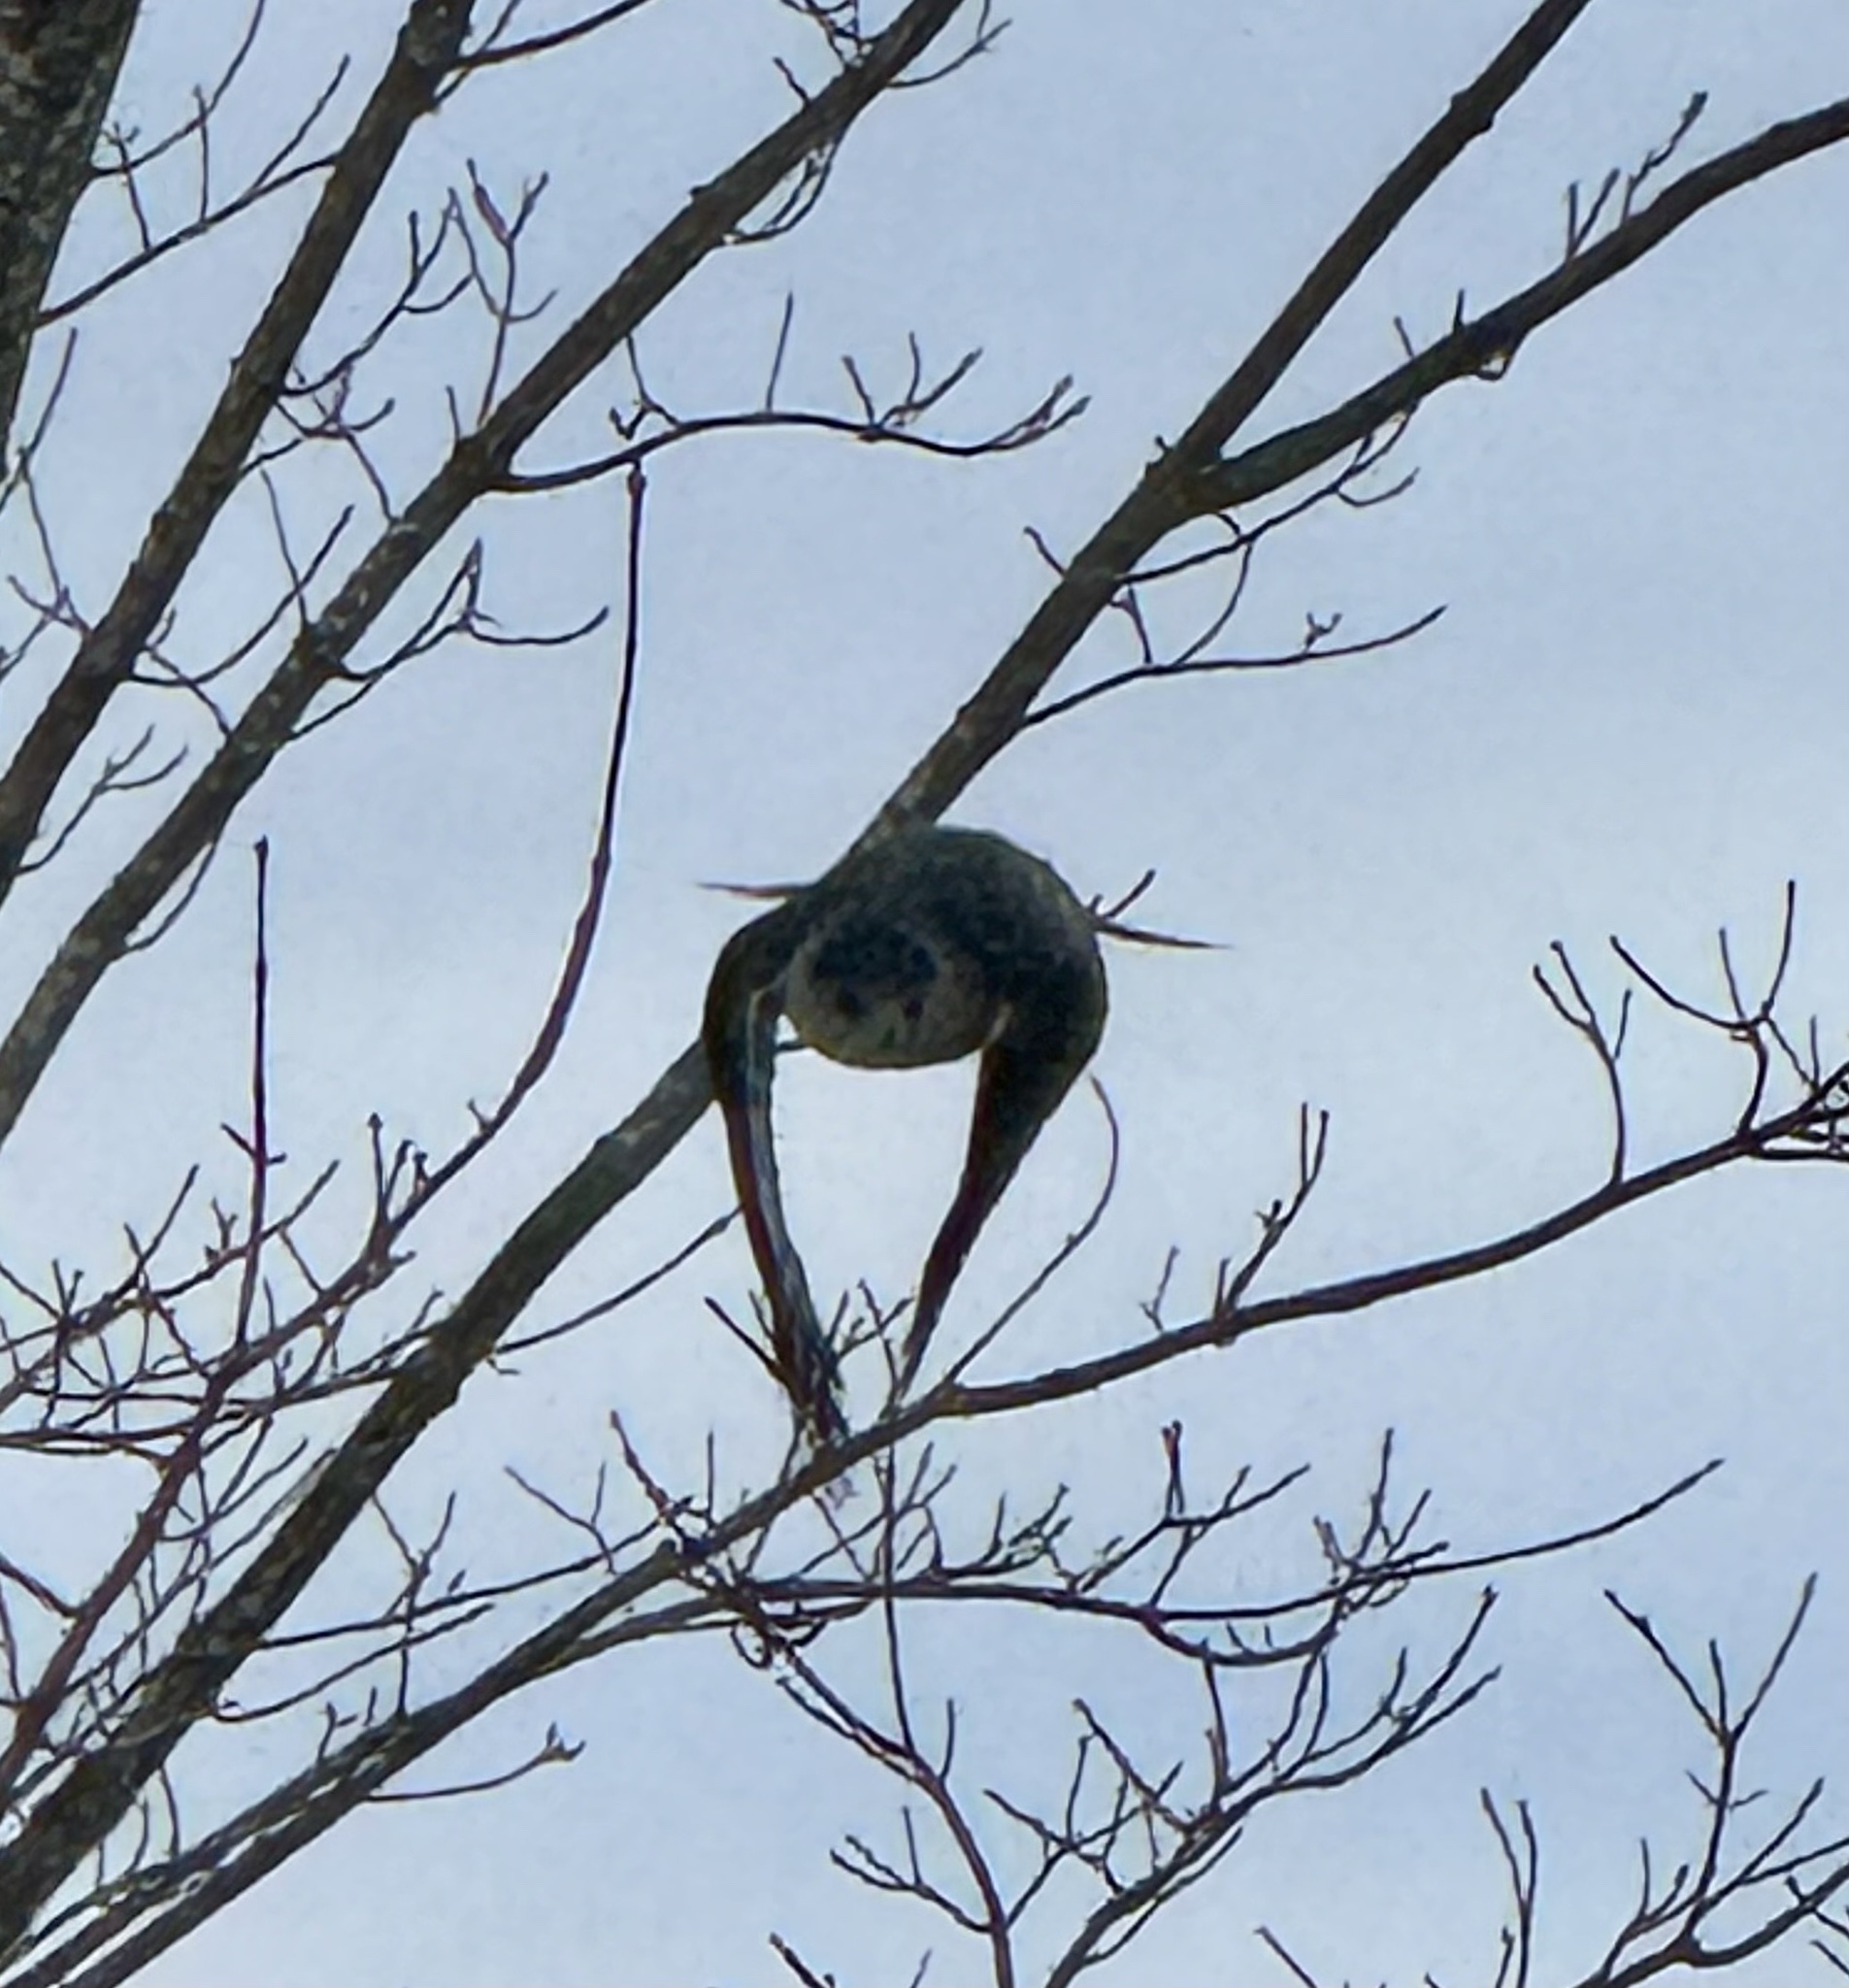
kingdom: Animalia
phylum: Chordata
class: Aves
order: Accipitriformes
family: Accipitridae
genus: Accipiter
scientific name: Accipiter cooperii
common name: Cooper's hawk
